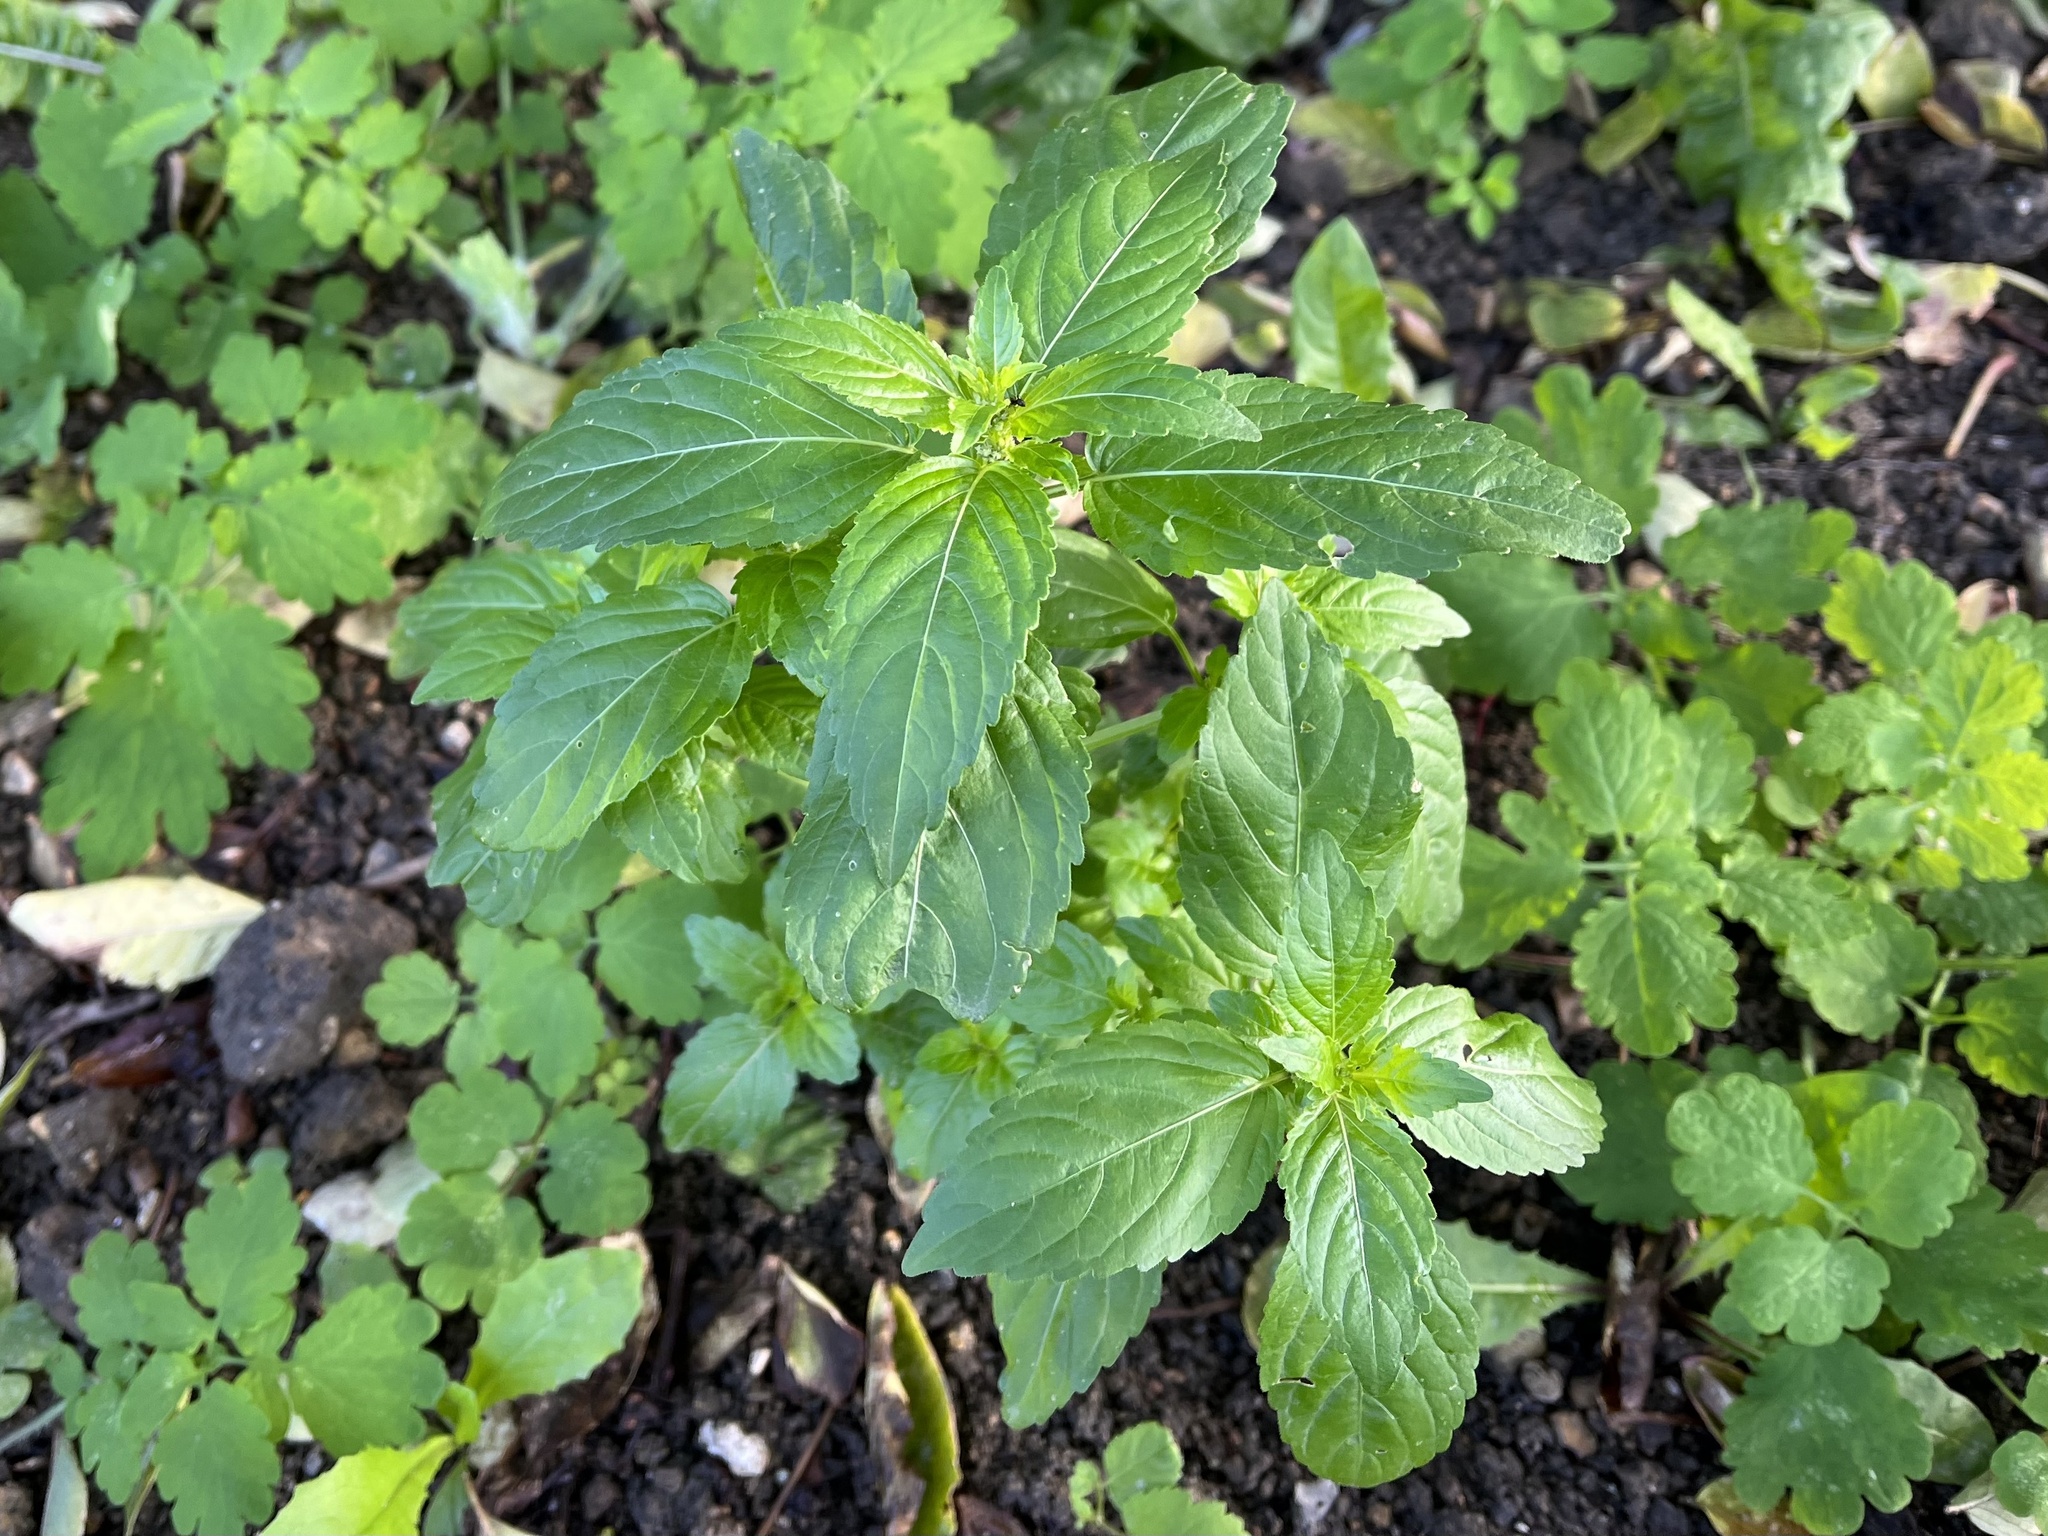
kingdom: Plantae
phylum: Tracheophyta
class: Magnoliopsida
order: Malpighiales
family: Euphorbiaceae
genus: Mercurialis
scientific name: Mercurialis annua
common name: Annual mercury
